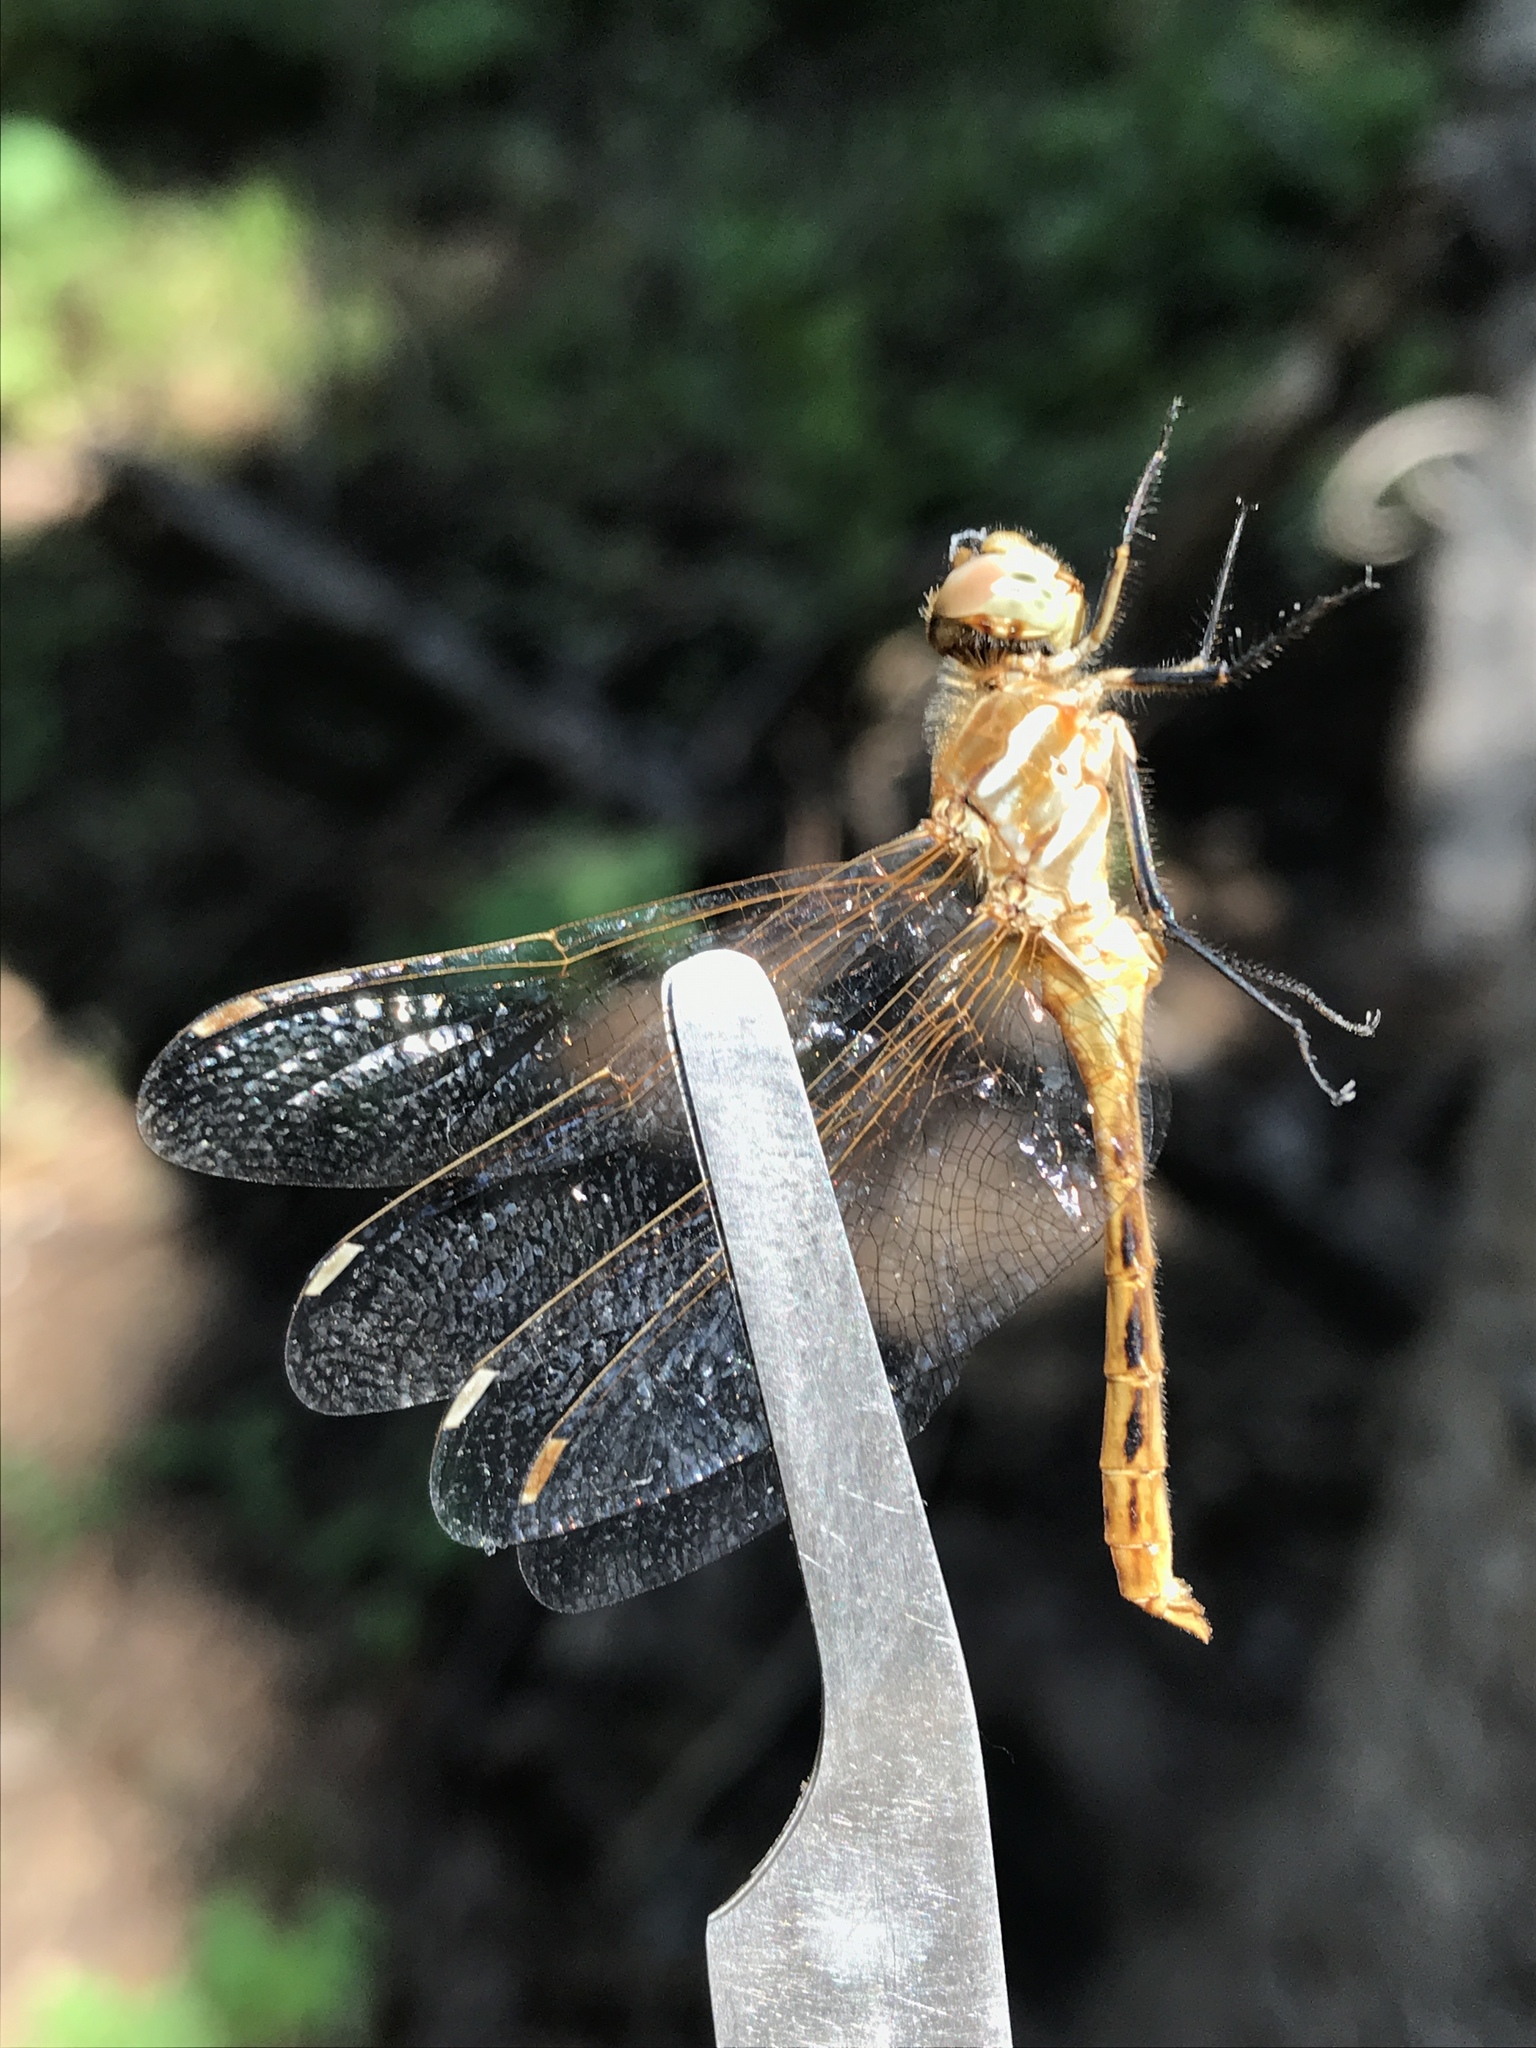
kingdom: Animalia
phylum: Arthropoda
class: Insecta
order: Odonata
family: Libellulidae
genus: Sympetrum
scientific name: Sympetrum pallipes
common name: Striped meadowhawk
